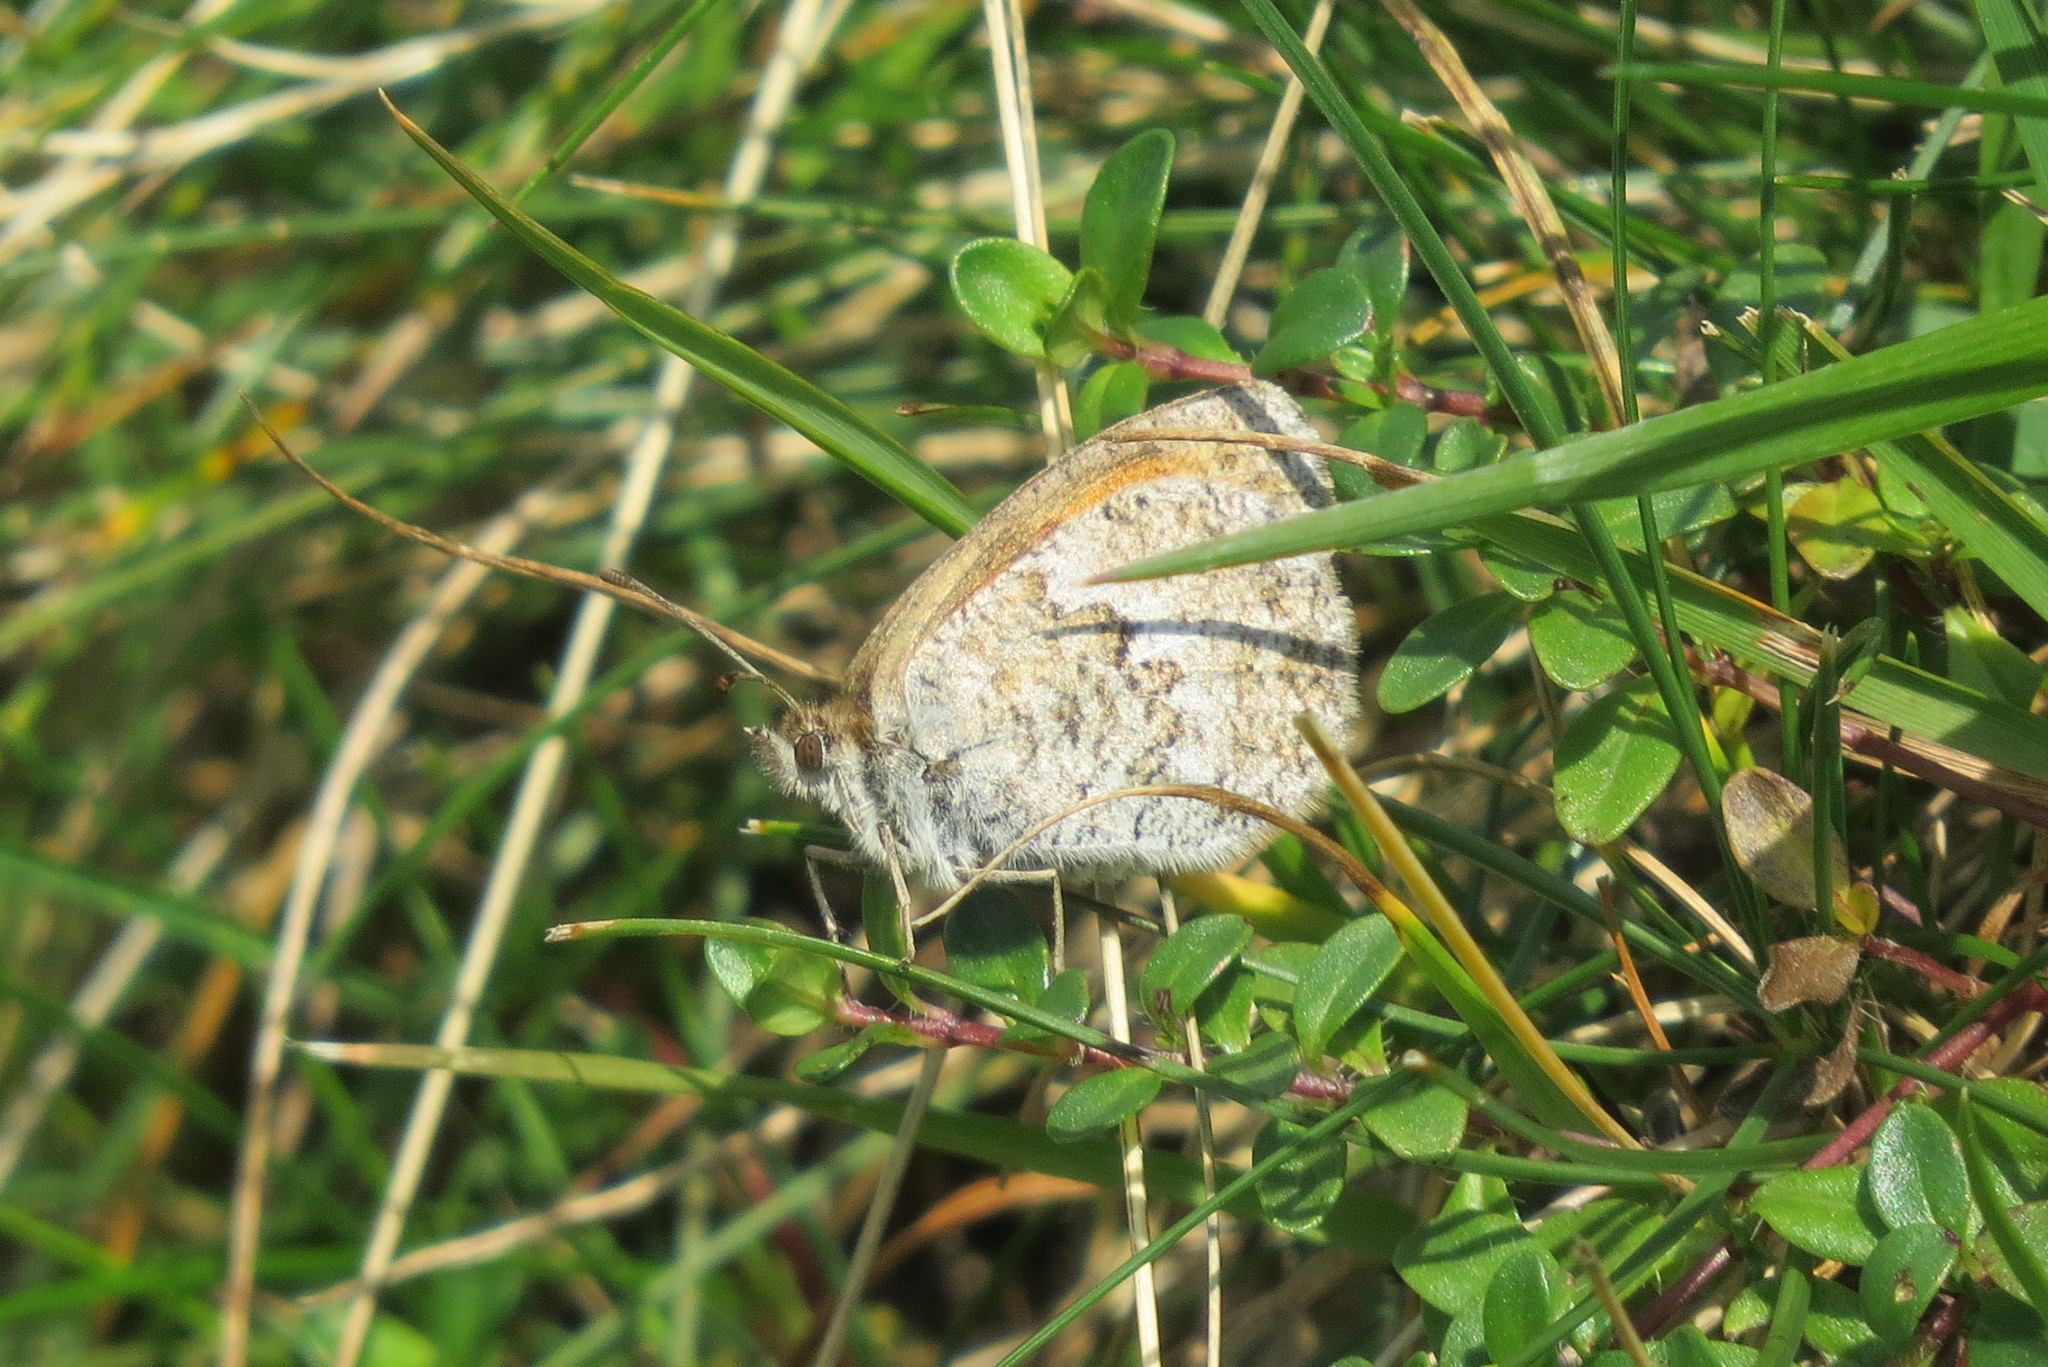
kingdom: Animalia
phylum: Arthropoda
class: Insecta
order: Lepidoptera
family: Nymphalidae
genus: Erebia
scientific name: Erebia cassioides
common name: Common brassy ringlet
